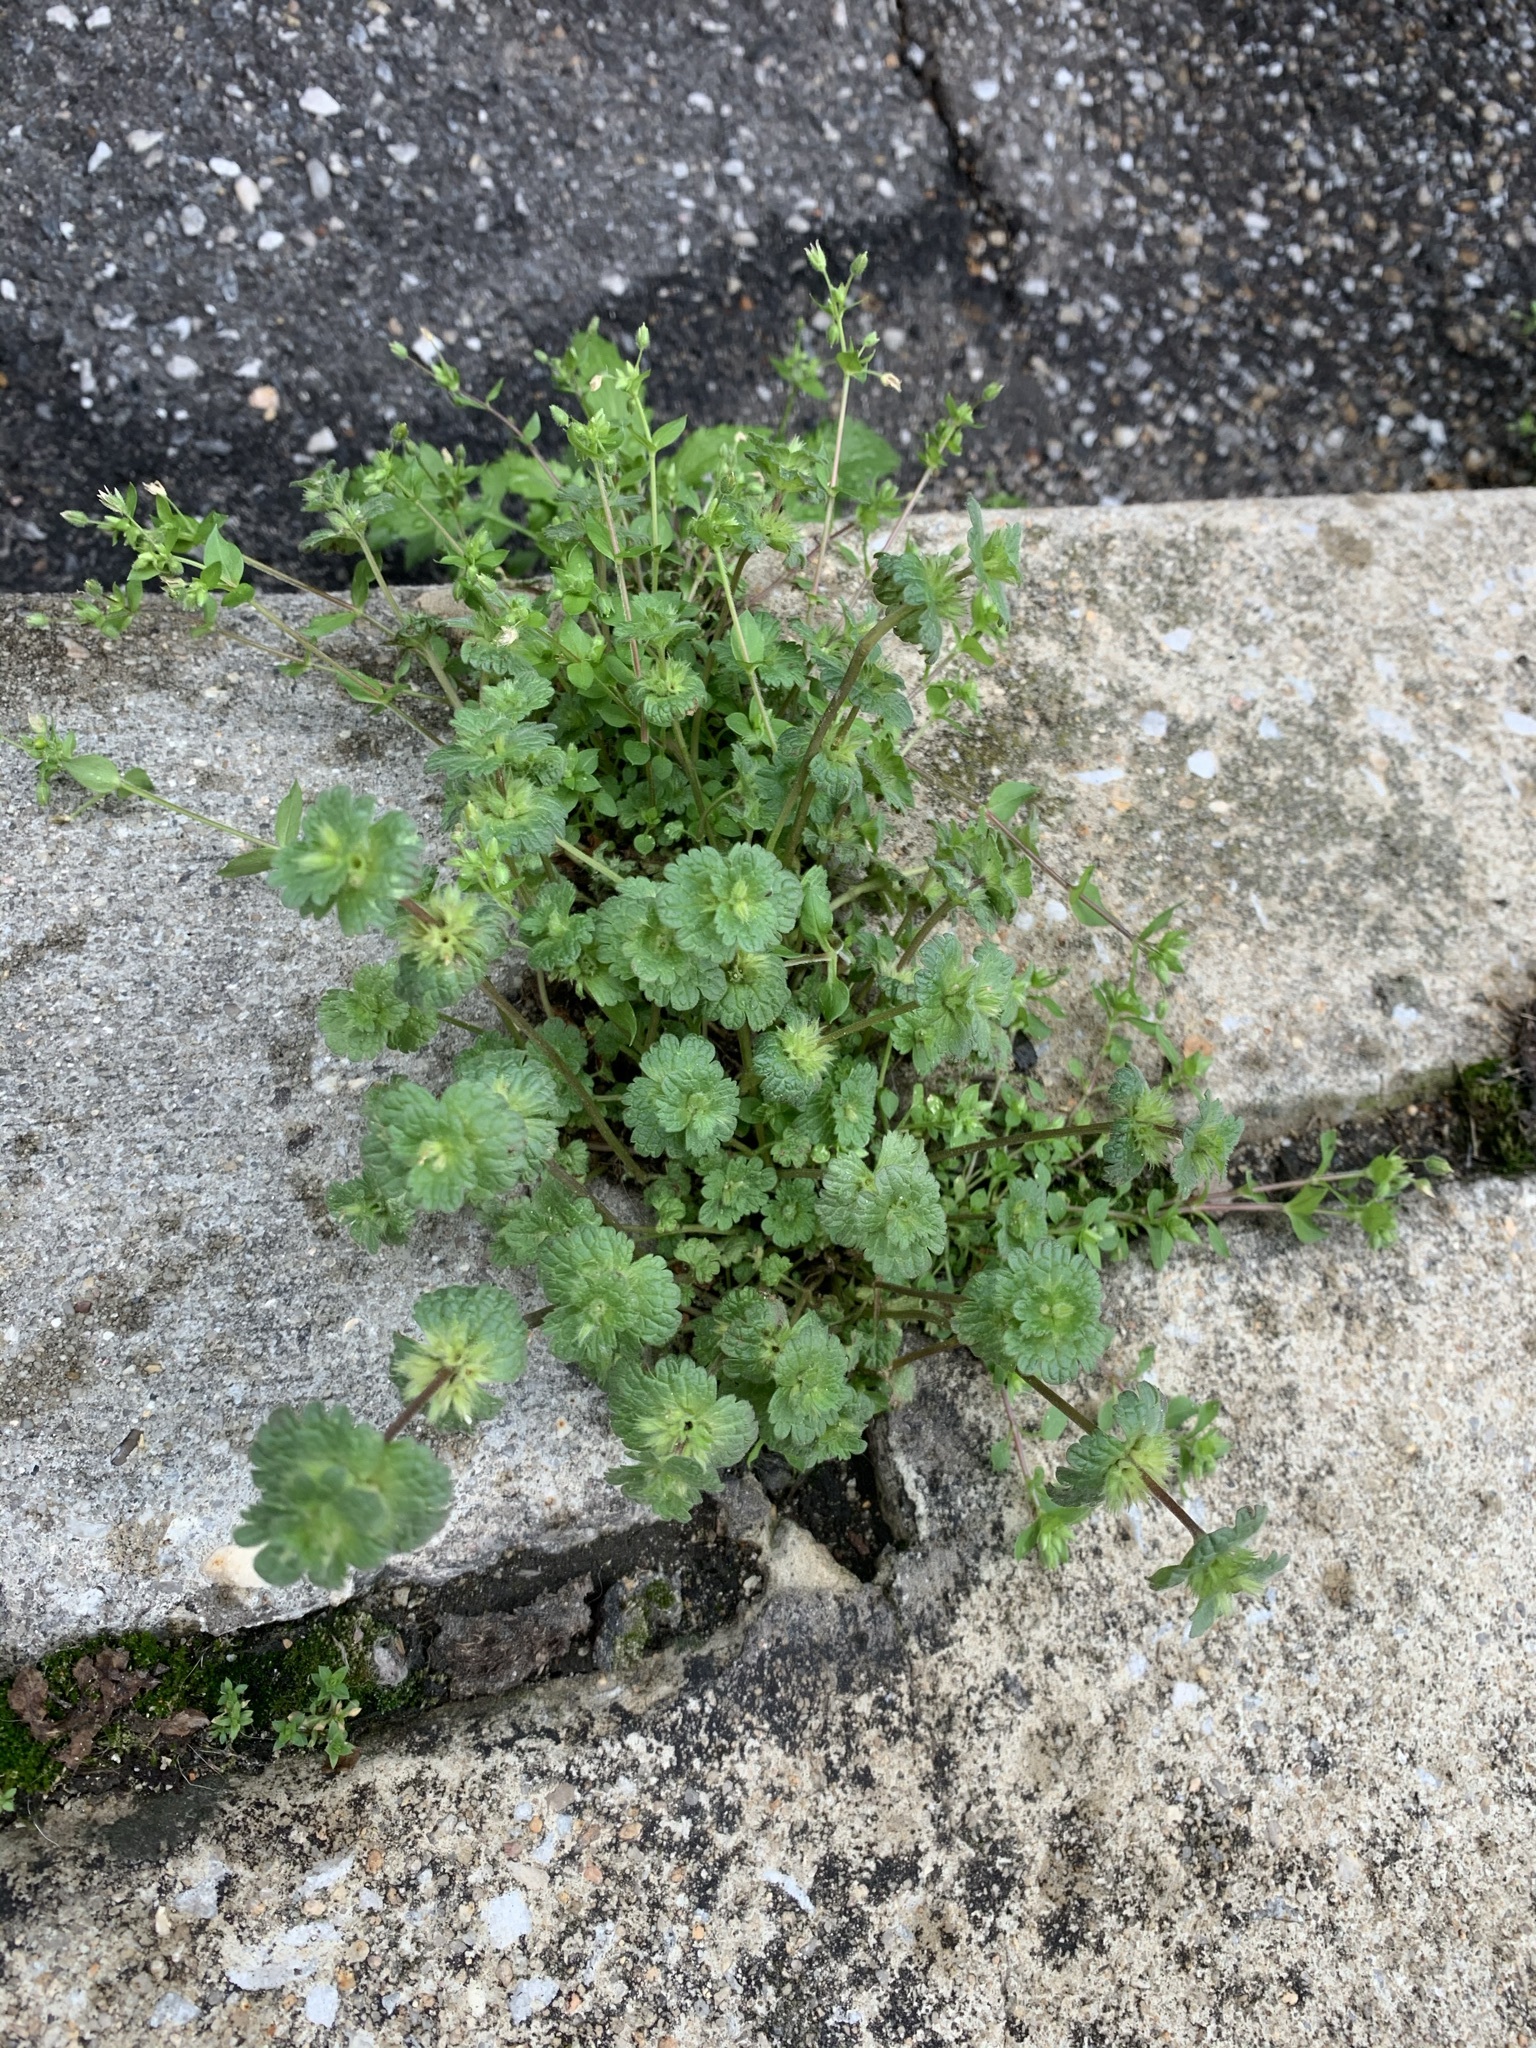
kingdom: Plantae
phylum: Tracheophyta
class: Magnoliopsida
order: Lamiales
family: Lamiaceae
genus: Lamium
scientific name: Lamium amplexicaule
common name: Henbit dead-nettle
